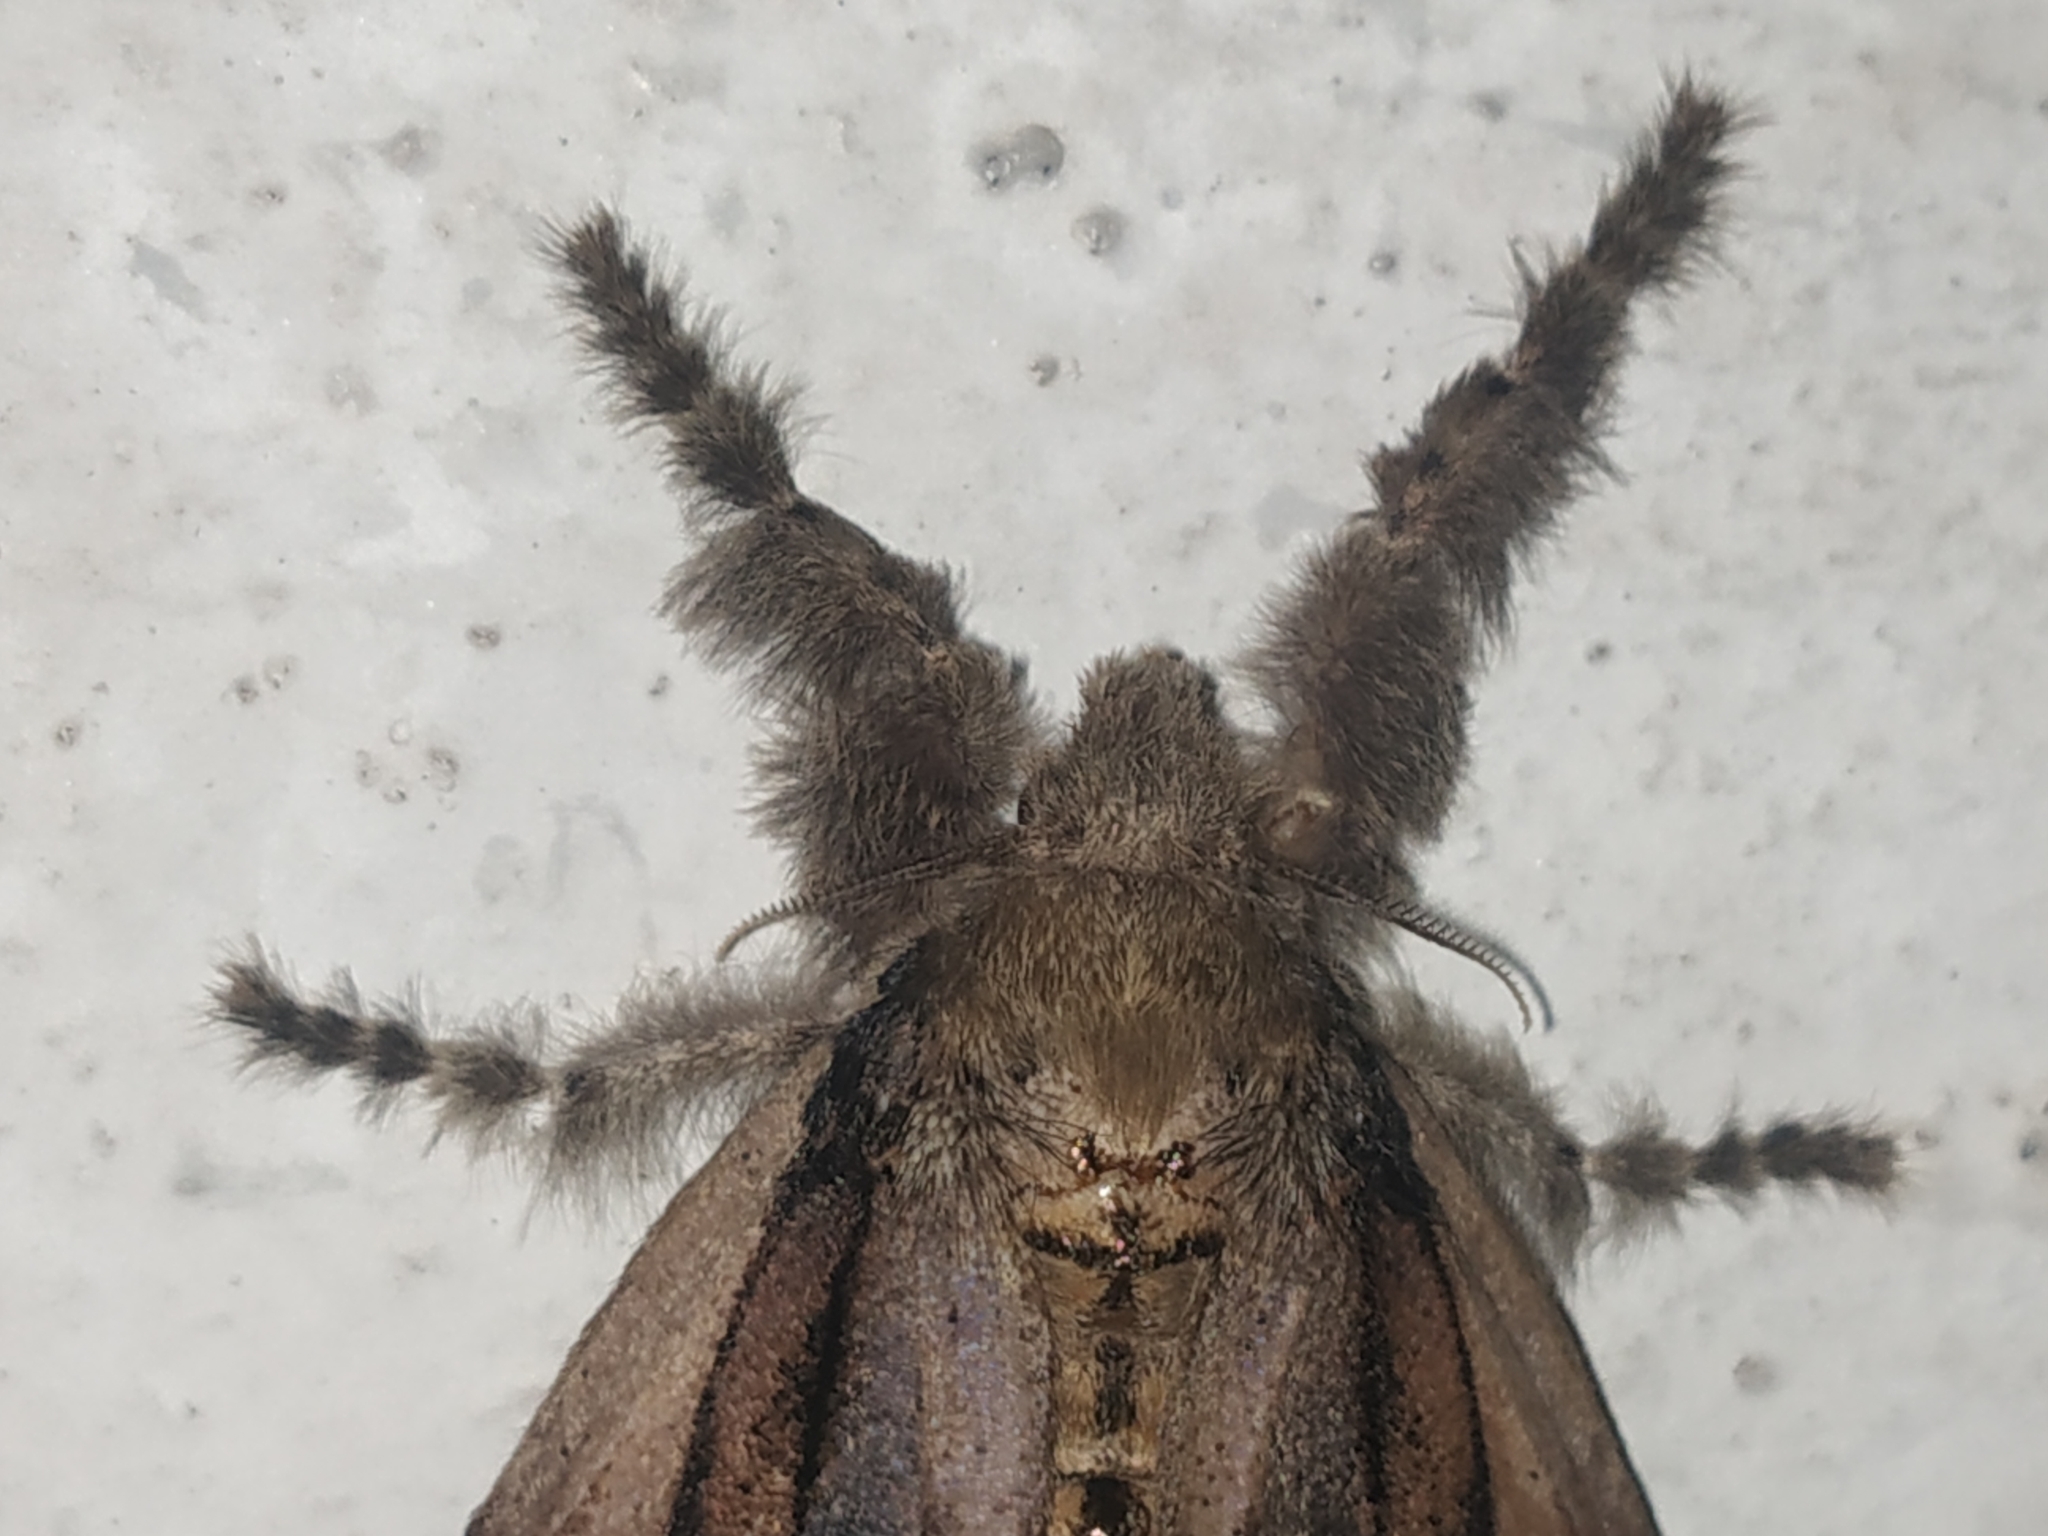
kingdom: Animalia
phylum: Arthropoda
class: Insecta
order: Lepidoptera
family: Erebidae
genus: Olene
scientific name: Olene mendosa
